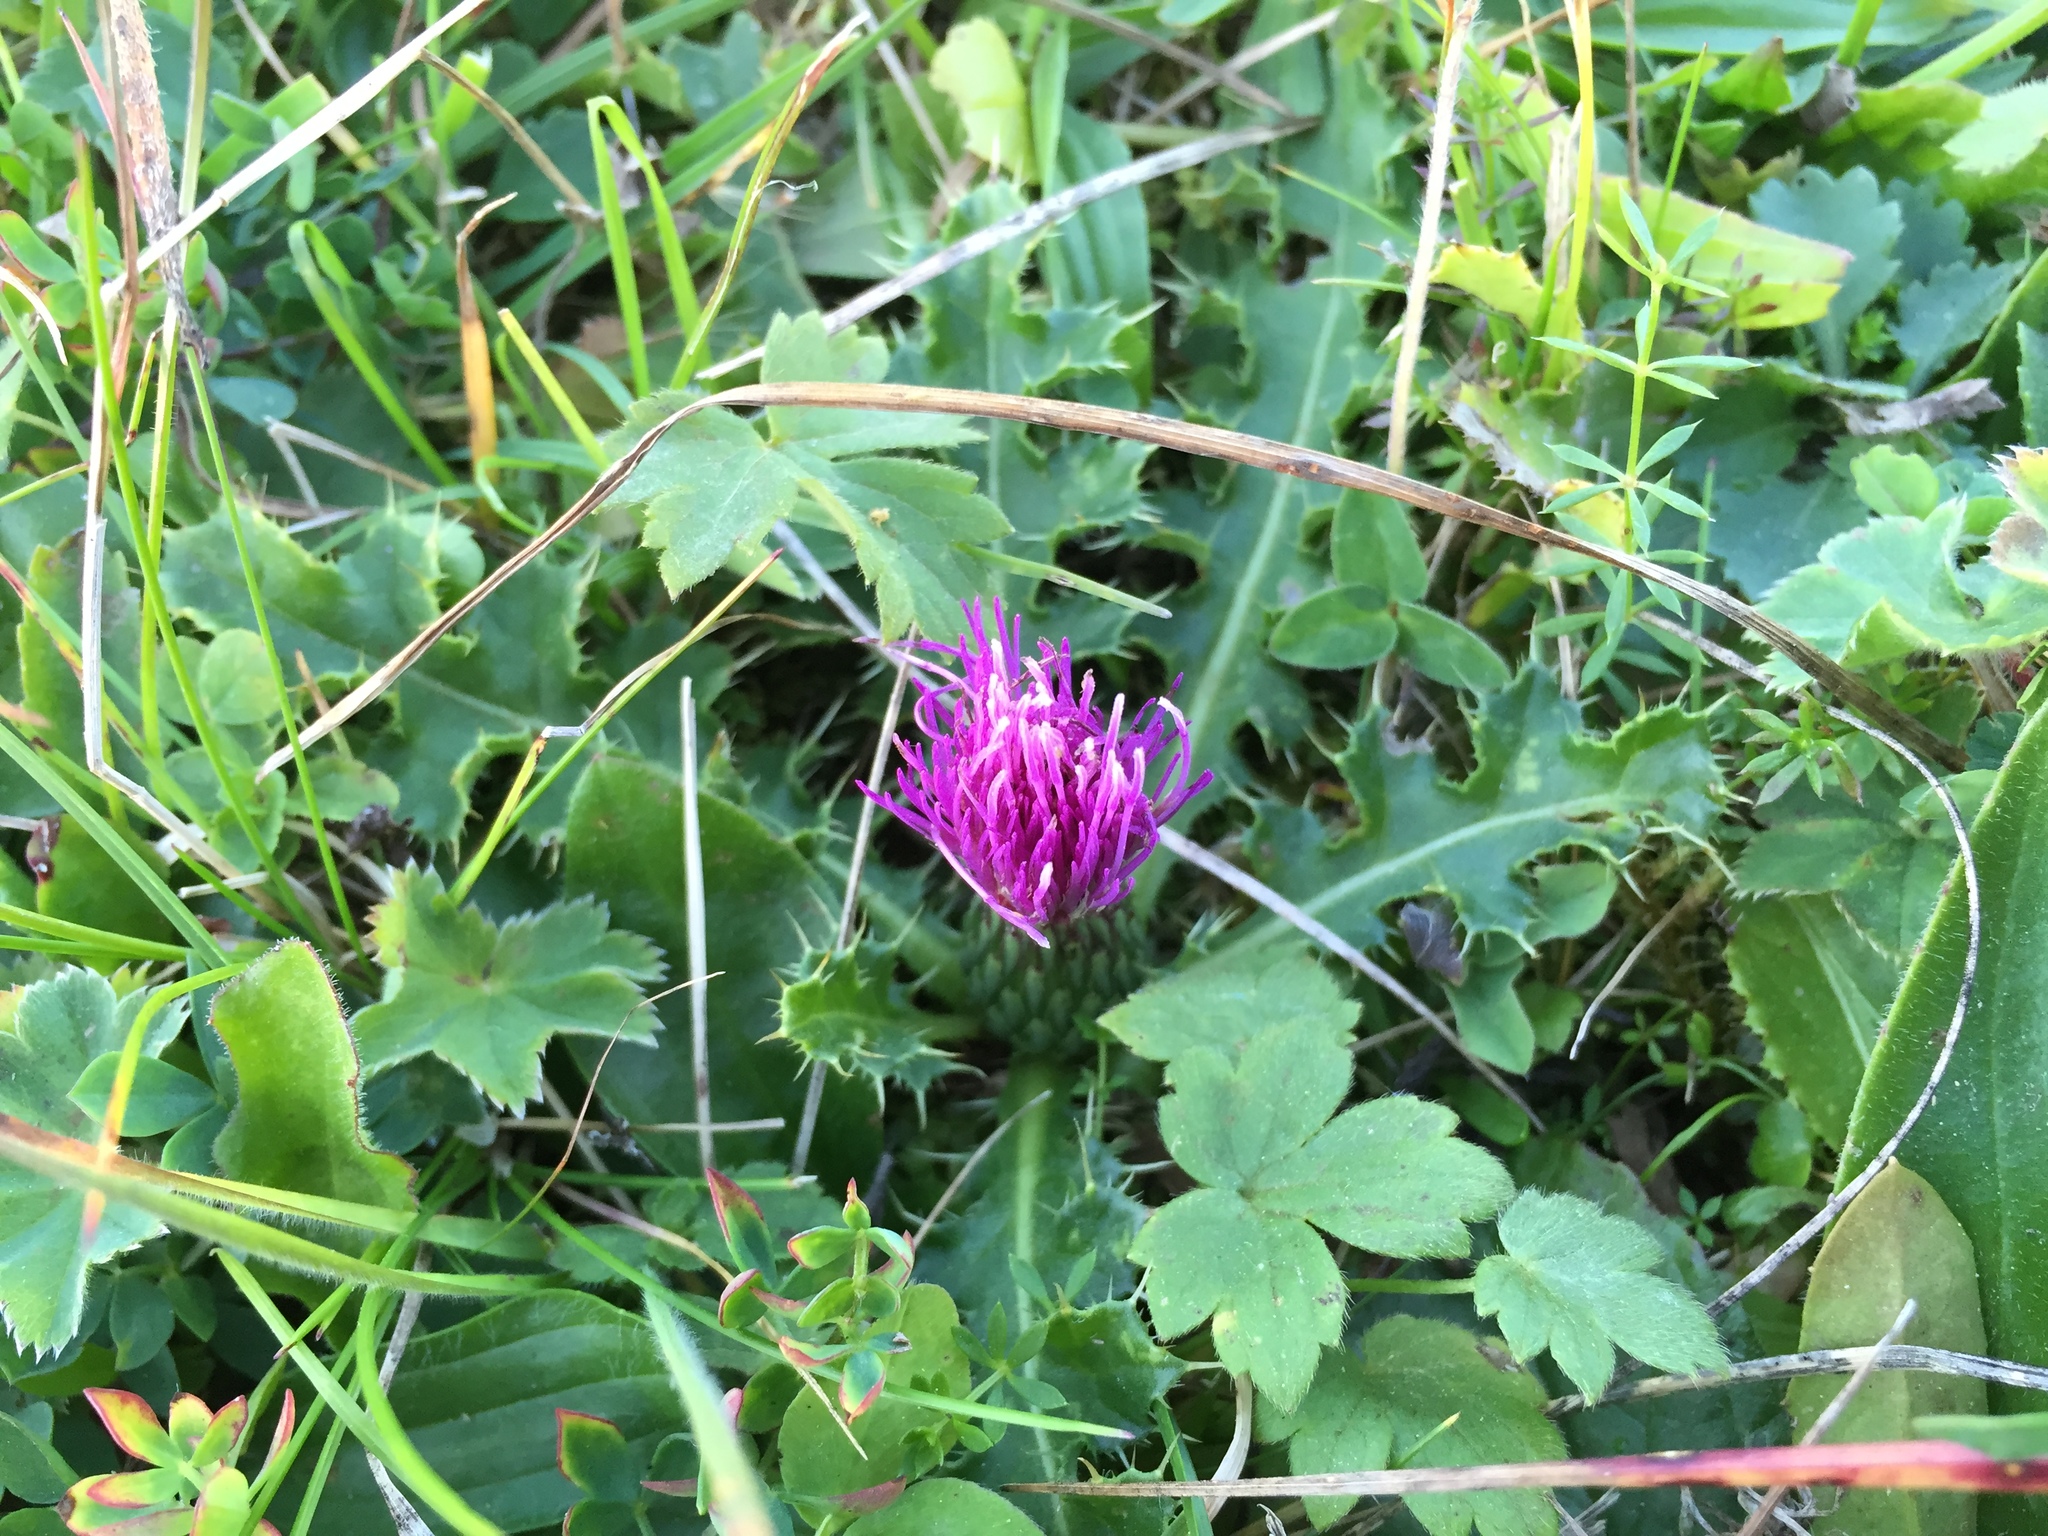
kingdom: Plantae
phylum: Tracheophyta
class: Magnoliopsida
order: Asterales
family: Asteraceae
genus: Cirsium
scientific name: Cirsium acaulon
